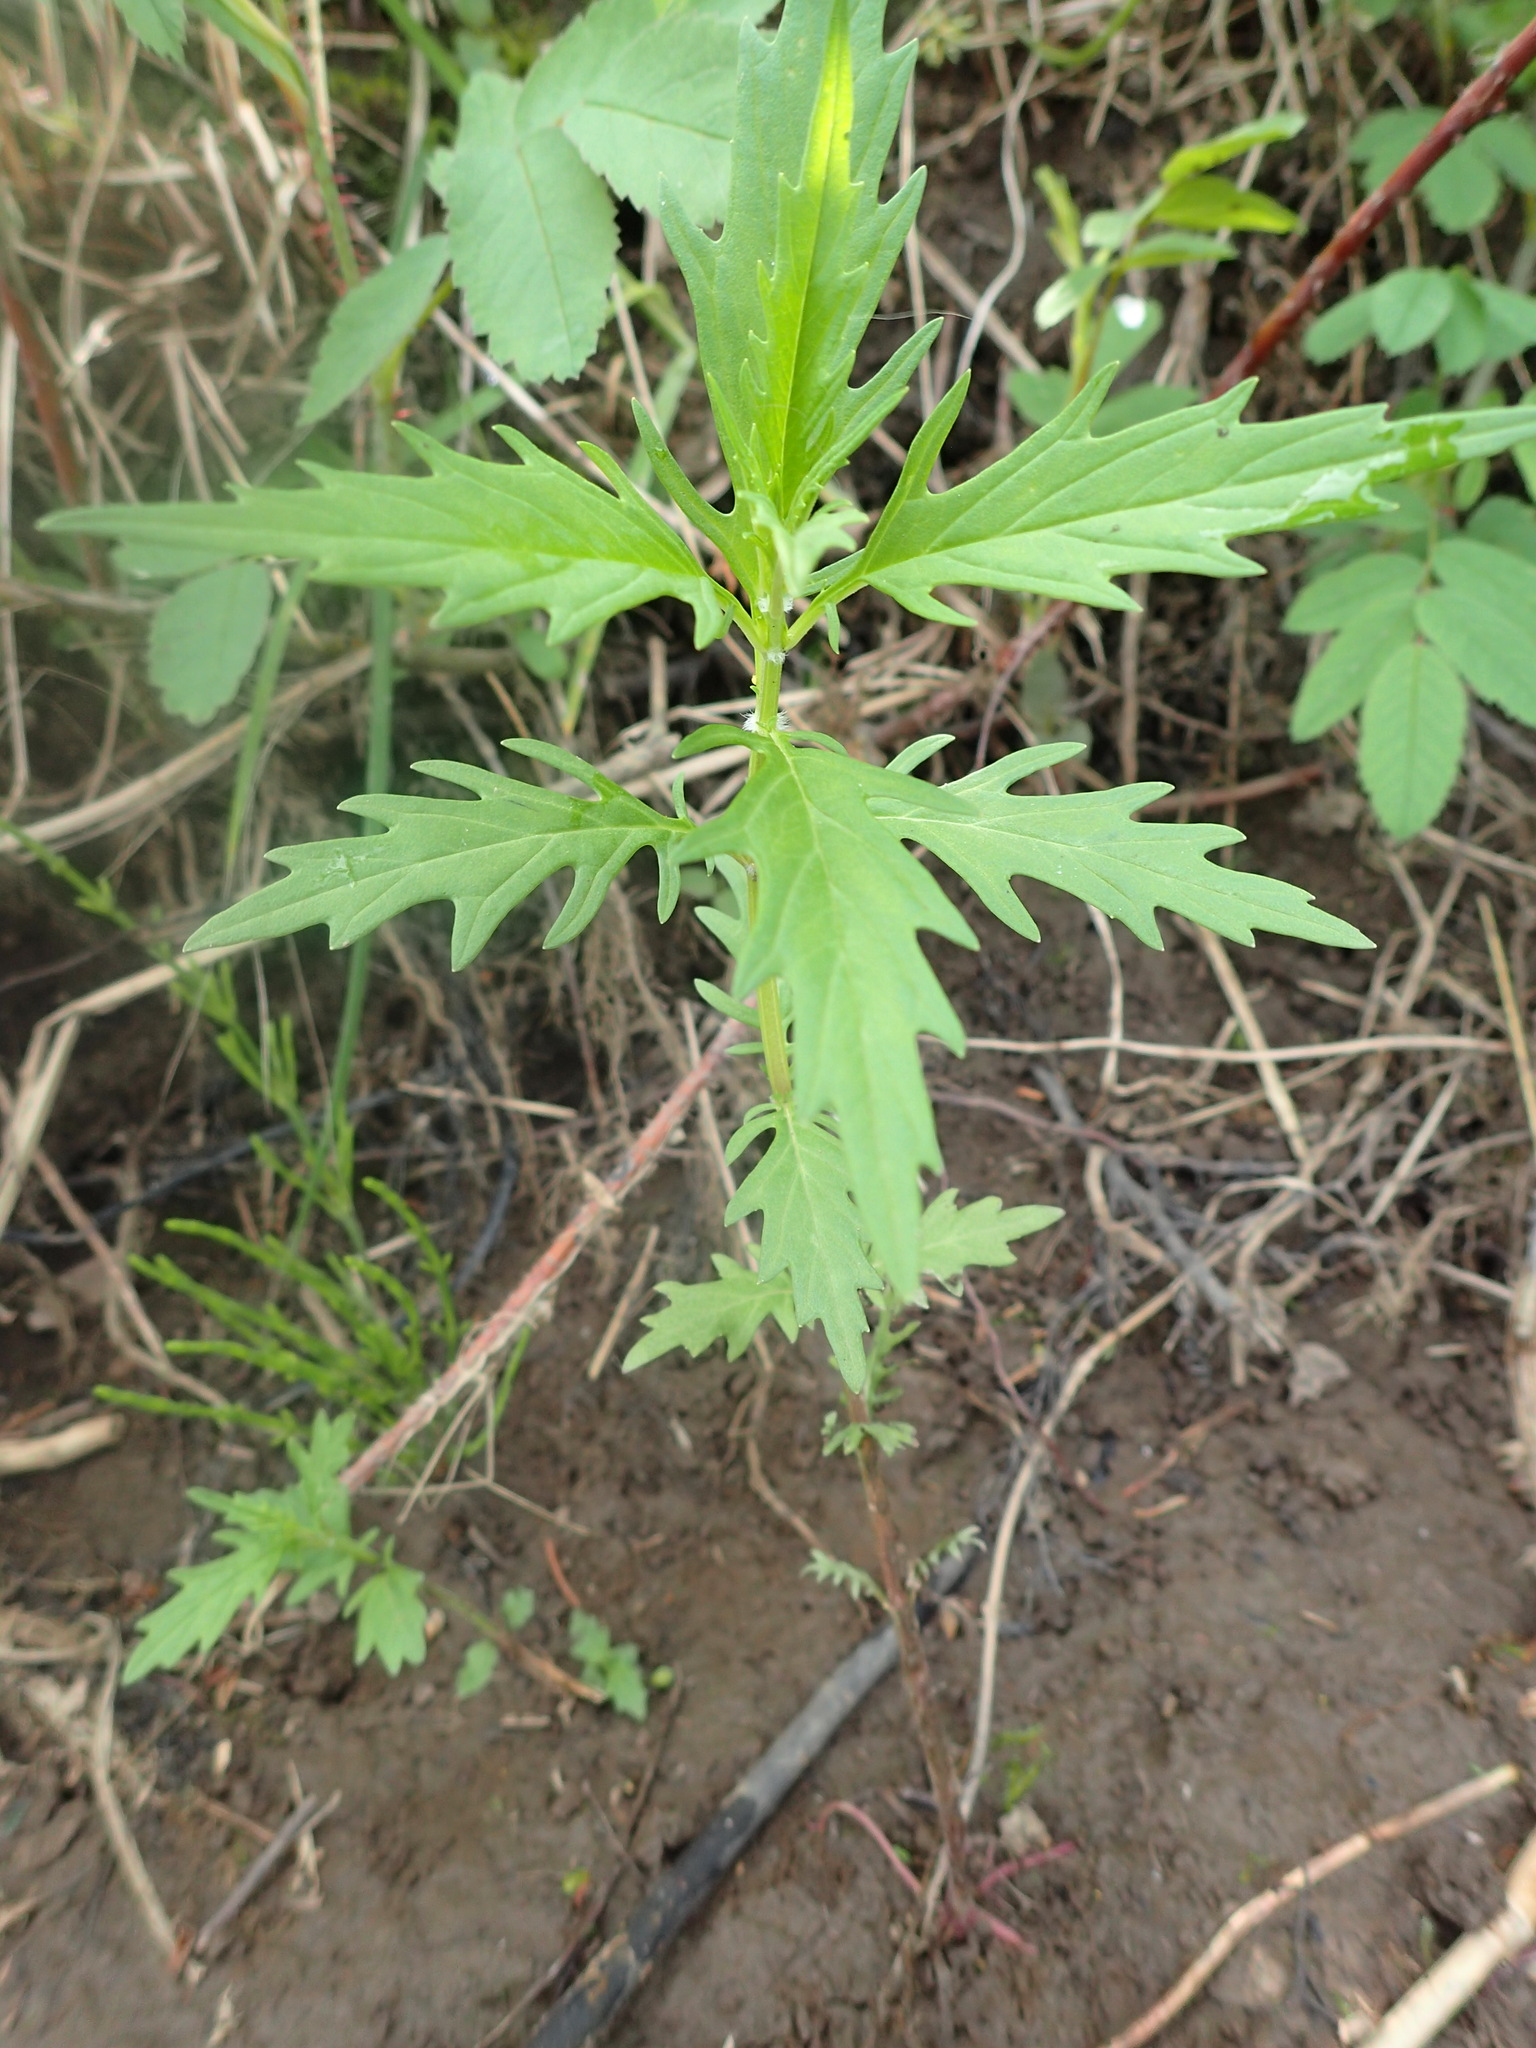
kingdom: Plantae
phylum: Tracheophyta
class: Magnoliopsida
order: Lamiales
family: Lamiaceae
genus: Lycopus
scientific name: Lycopus americanus
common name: American bugleweed
